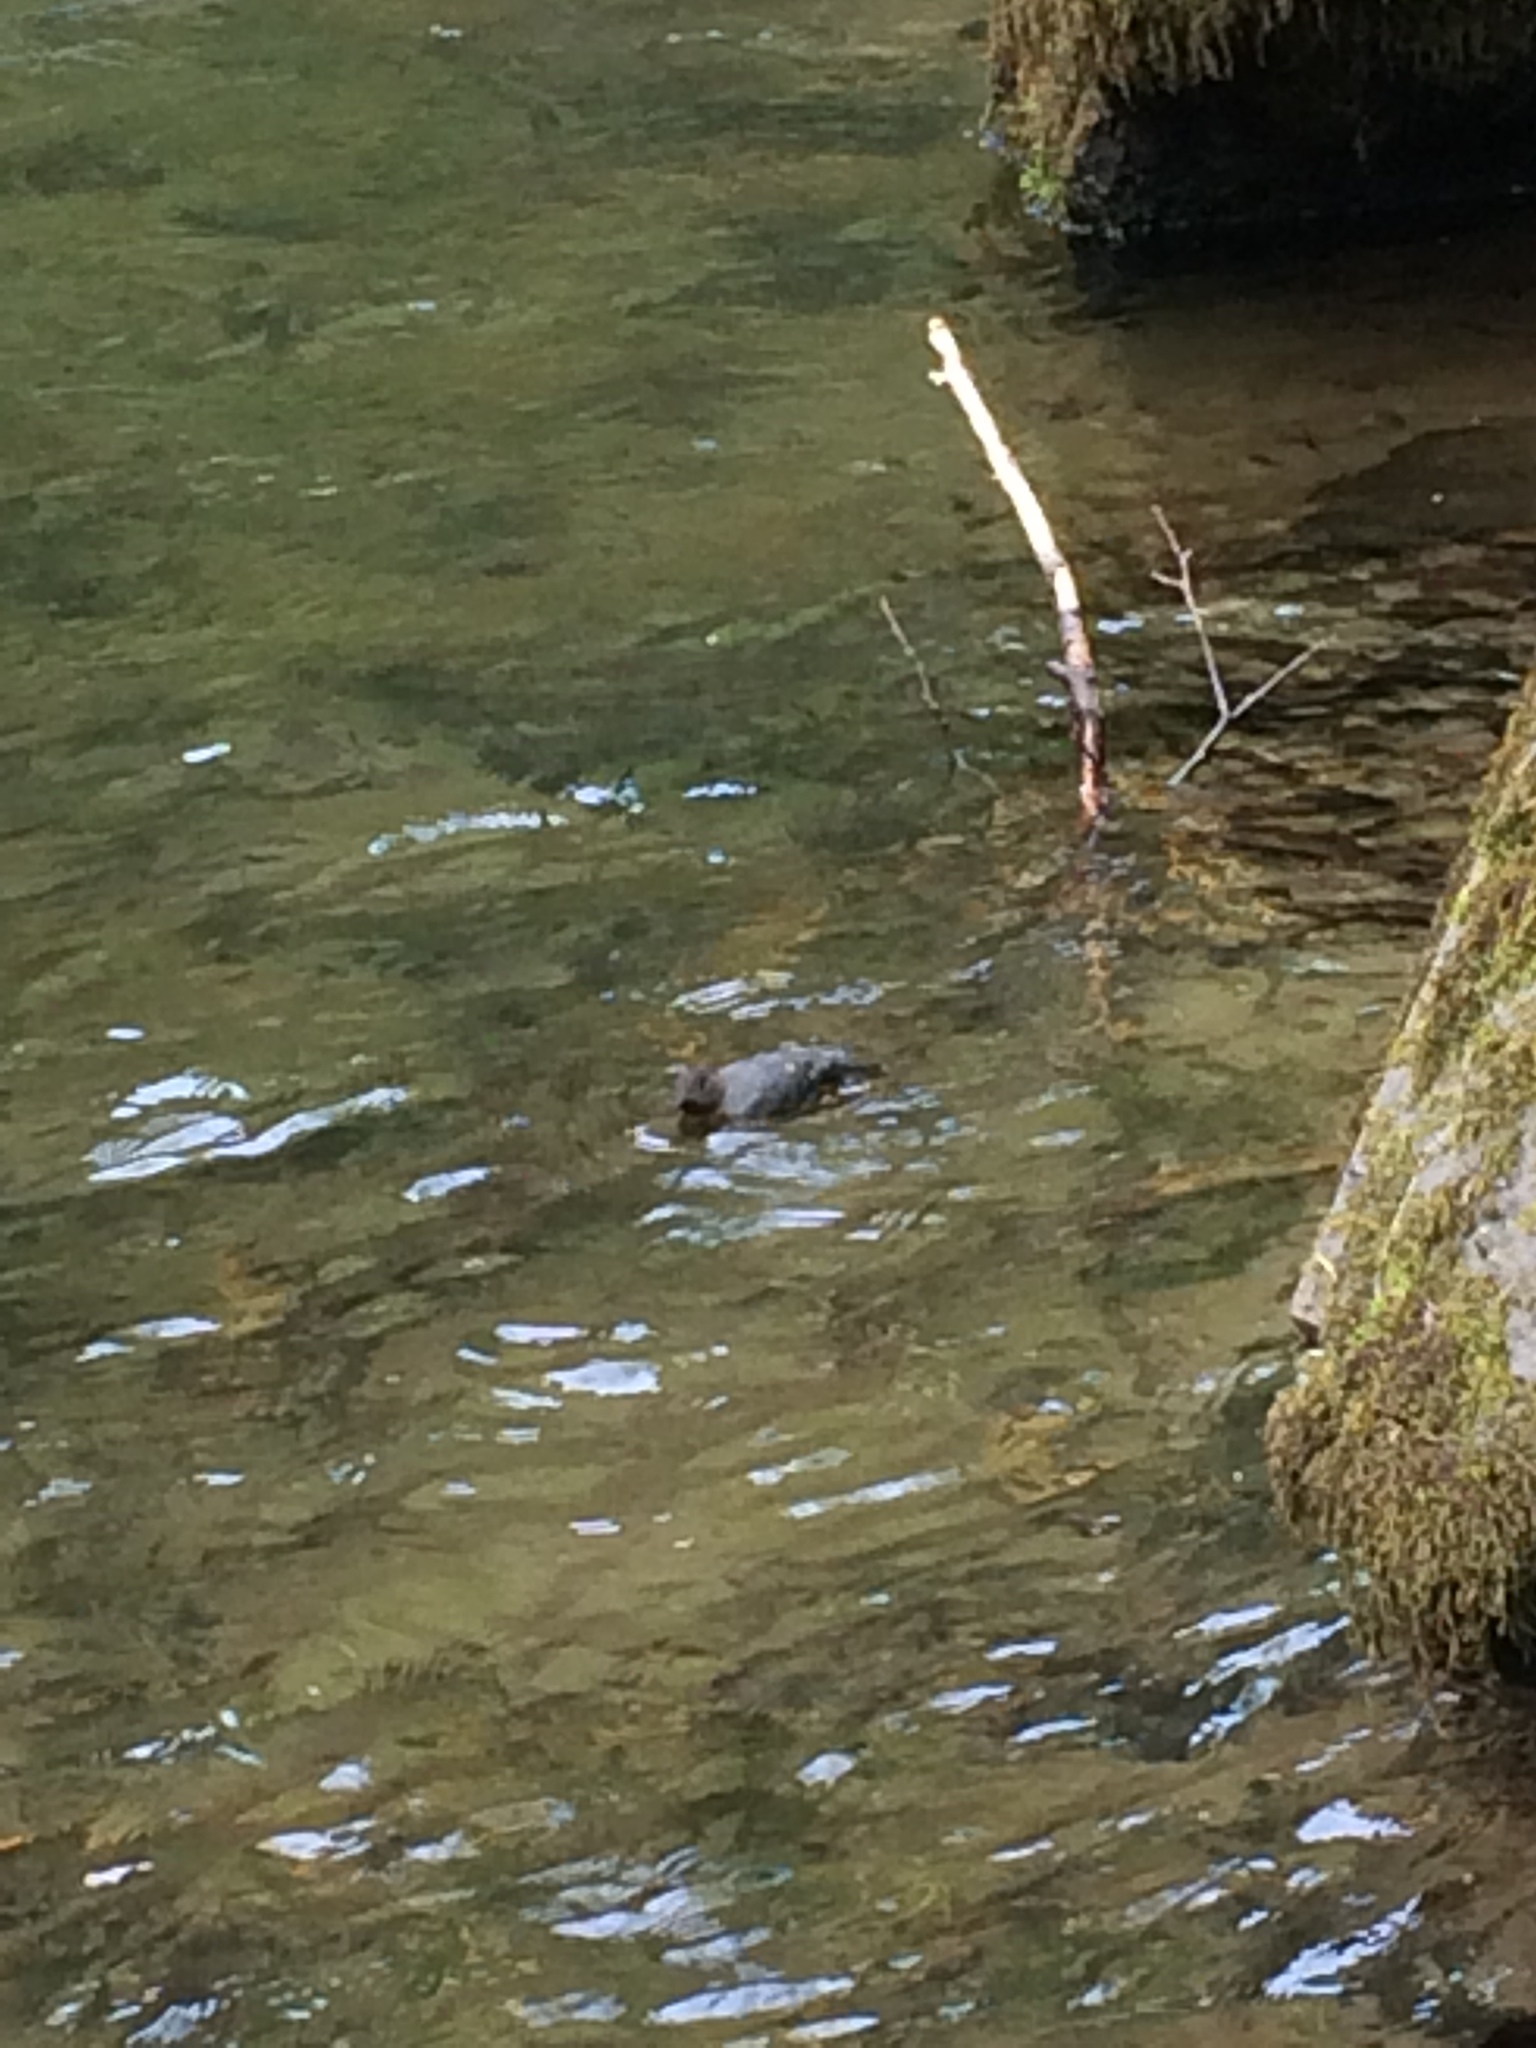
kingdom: Animalia
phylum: Chordata
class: Aves
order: Passeriformes
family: Cinclidae
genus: Cinclus
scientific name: Cinclus mexicanus
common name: American dipper
